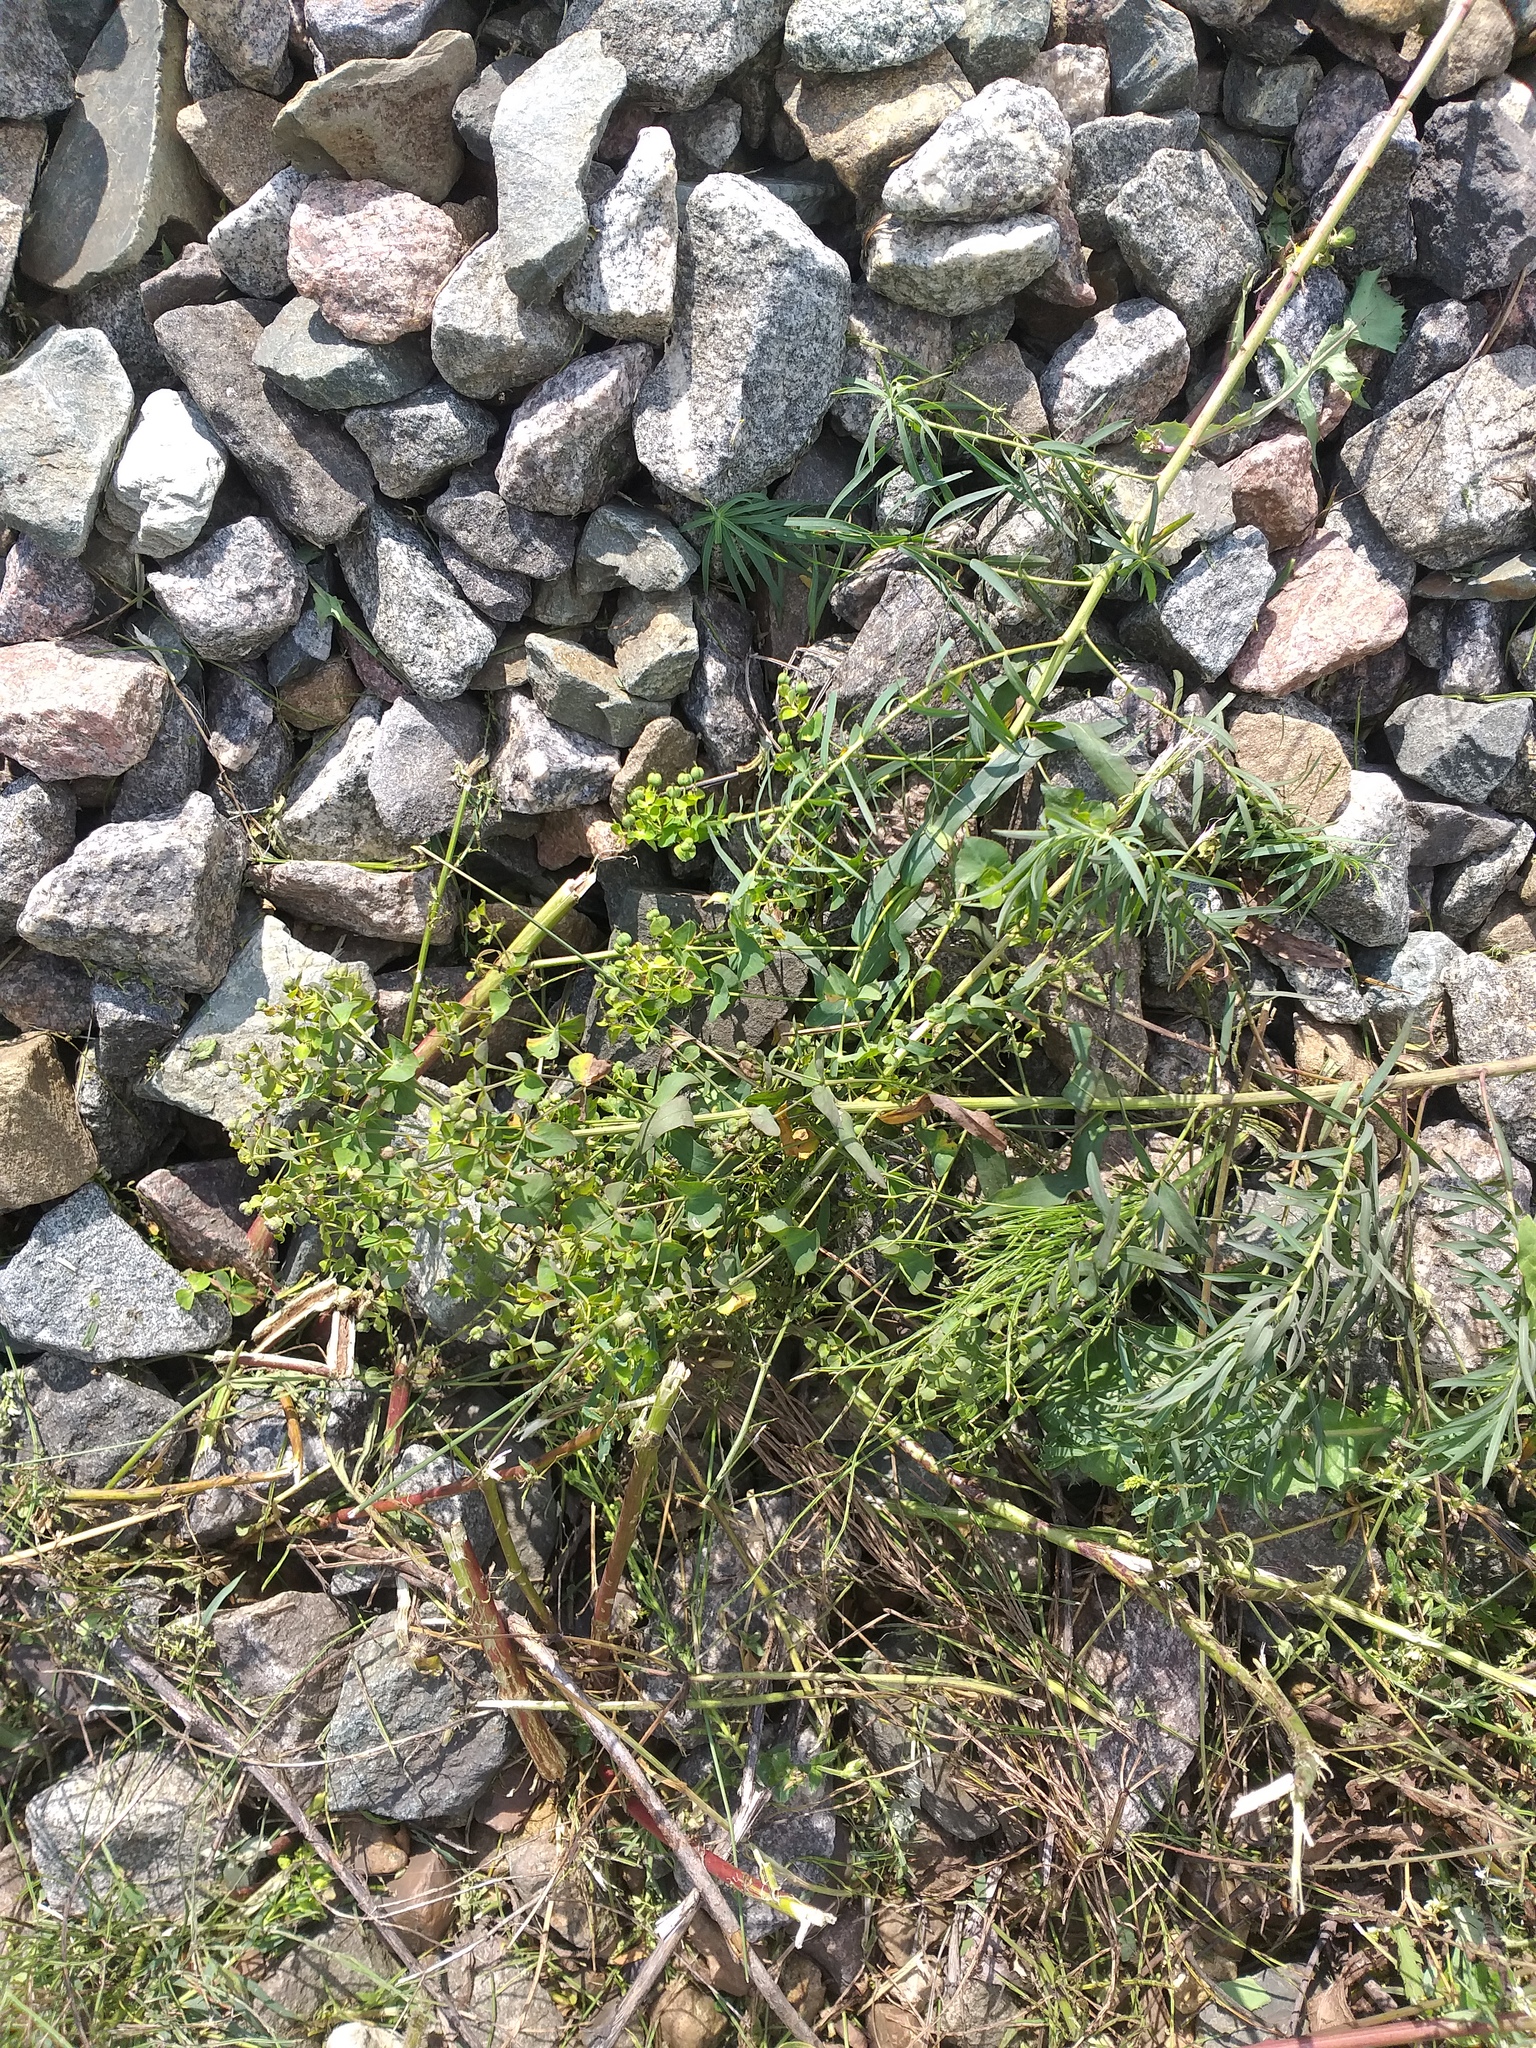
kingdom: Plantae
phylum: Tracheophyta
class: Magnoliopsida
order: Malpighiales
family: Euphorbiaceae
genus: Euphorbia
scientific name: Euphorbia virgata
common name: Leafy spurge
